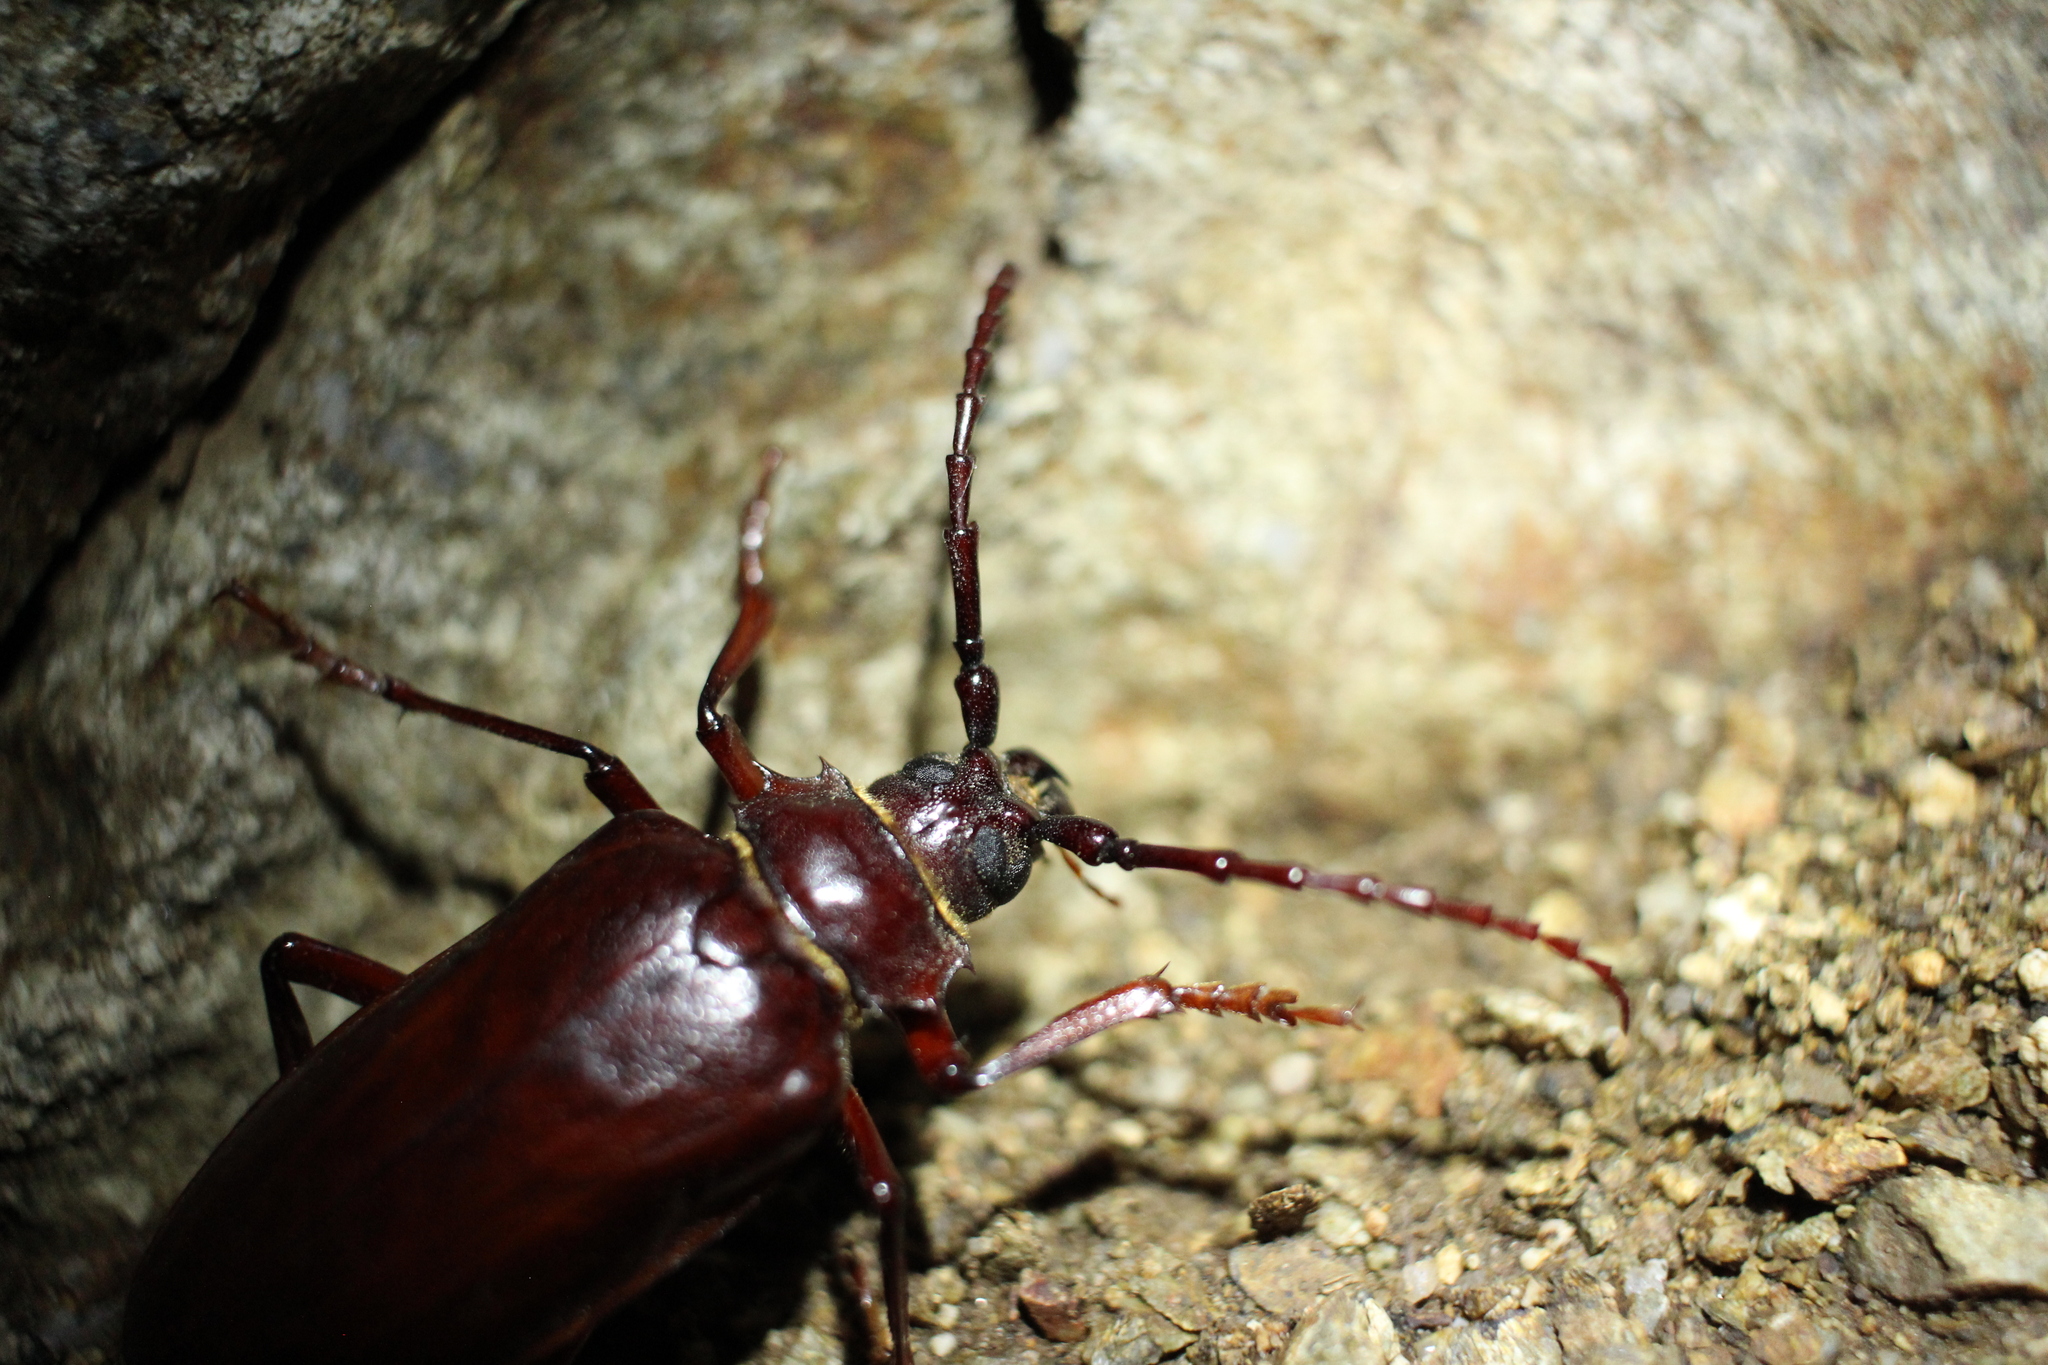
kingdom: Animalia
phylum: Arthropoda
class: Insecta
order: Coleoptera
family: Cerambycidae
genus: Prionus
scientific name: Prionus californicus
